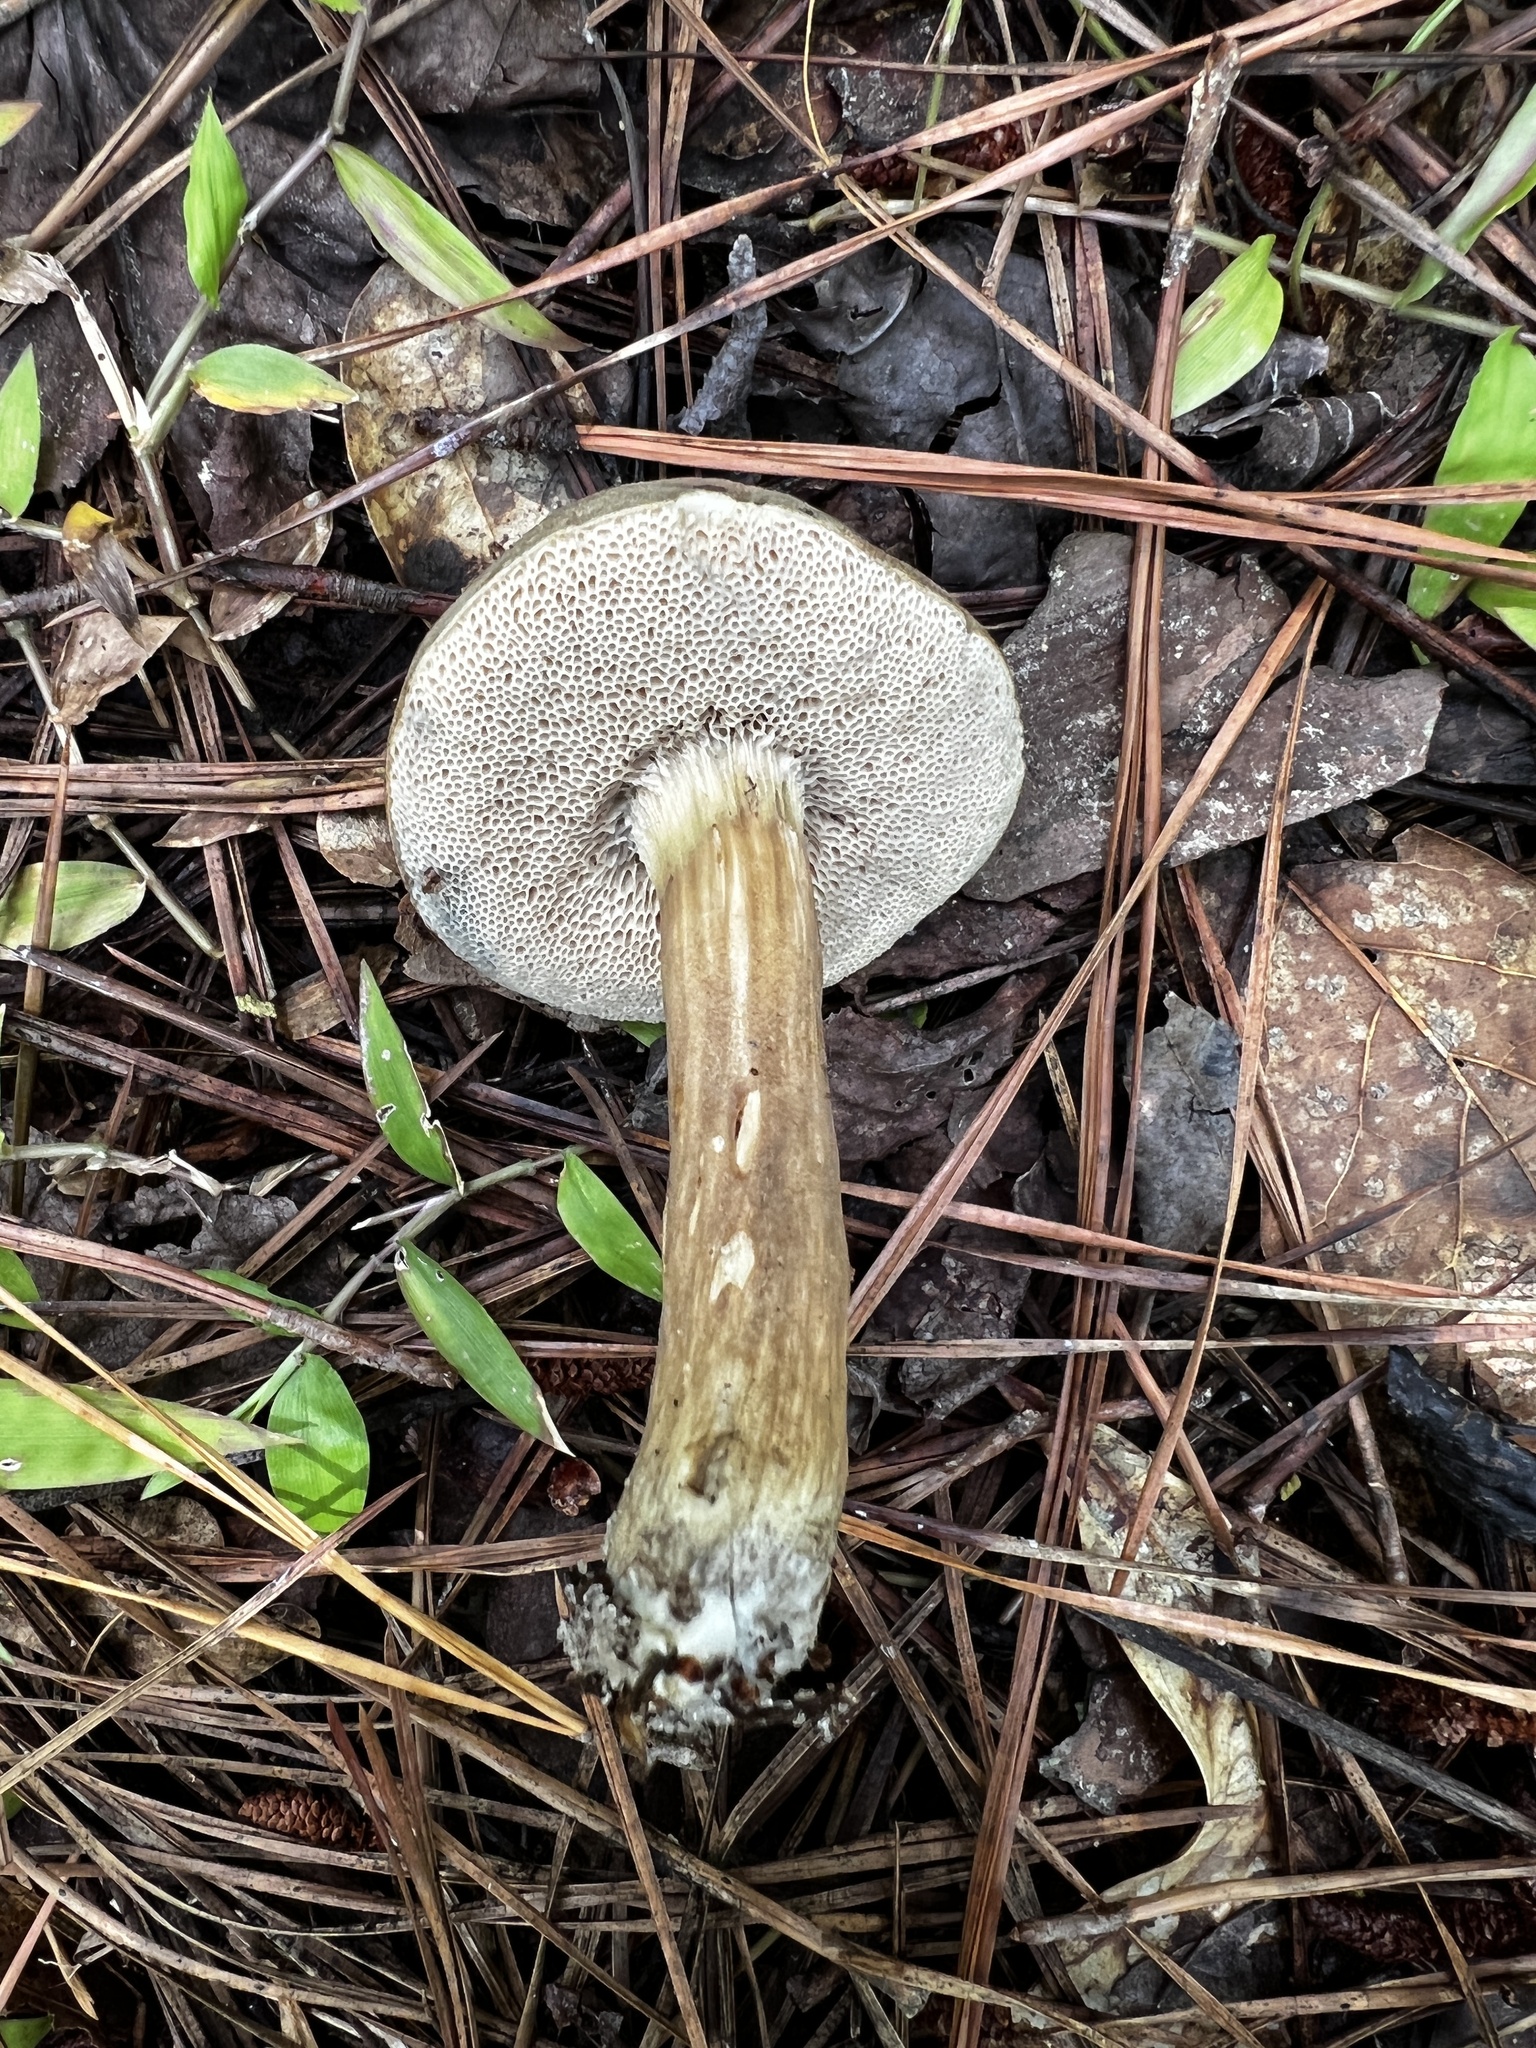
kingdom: Fungi
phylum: Basidiomycota
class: Agaricomycetes
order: Boletales
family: Boletaceae
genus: Porphyrellus
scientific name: Porphyrellus sordidus
